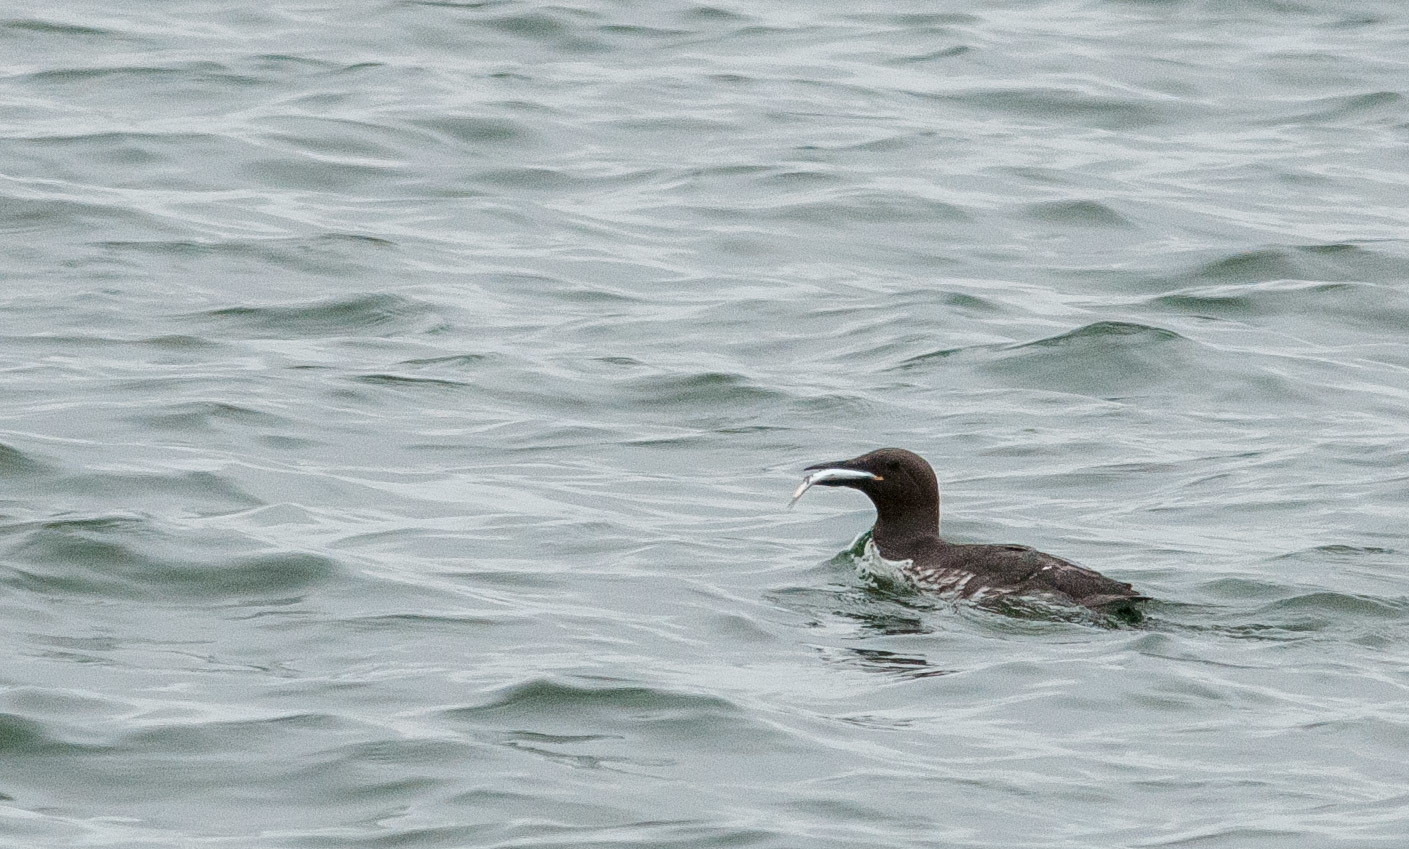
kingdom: Animalia
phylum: Chordata
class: Aves
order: Charadriiformes
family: Alcidae
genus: Uria
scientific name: Uria aalge
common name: Common murre
